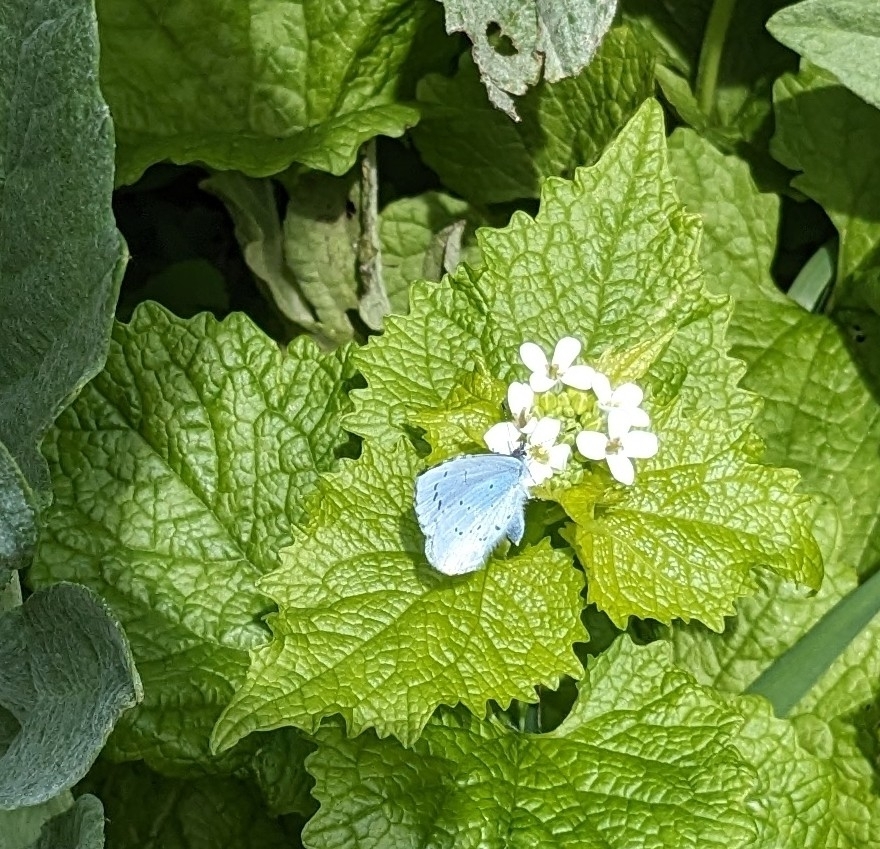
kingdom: Animalia
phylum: Arthropoda
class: Insecta
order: Lepidoptera
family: Lycaenidae
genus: Celastrina
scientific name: Celastrina argiolus
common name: Holly blue
